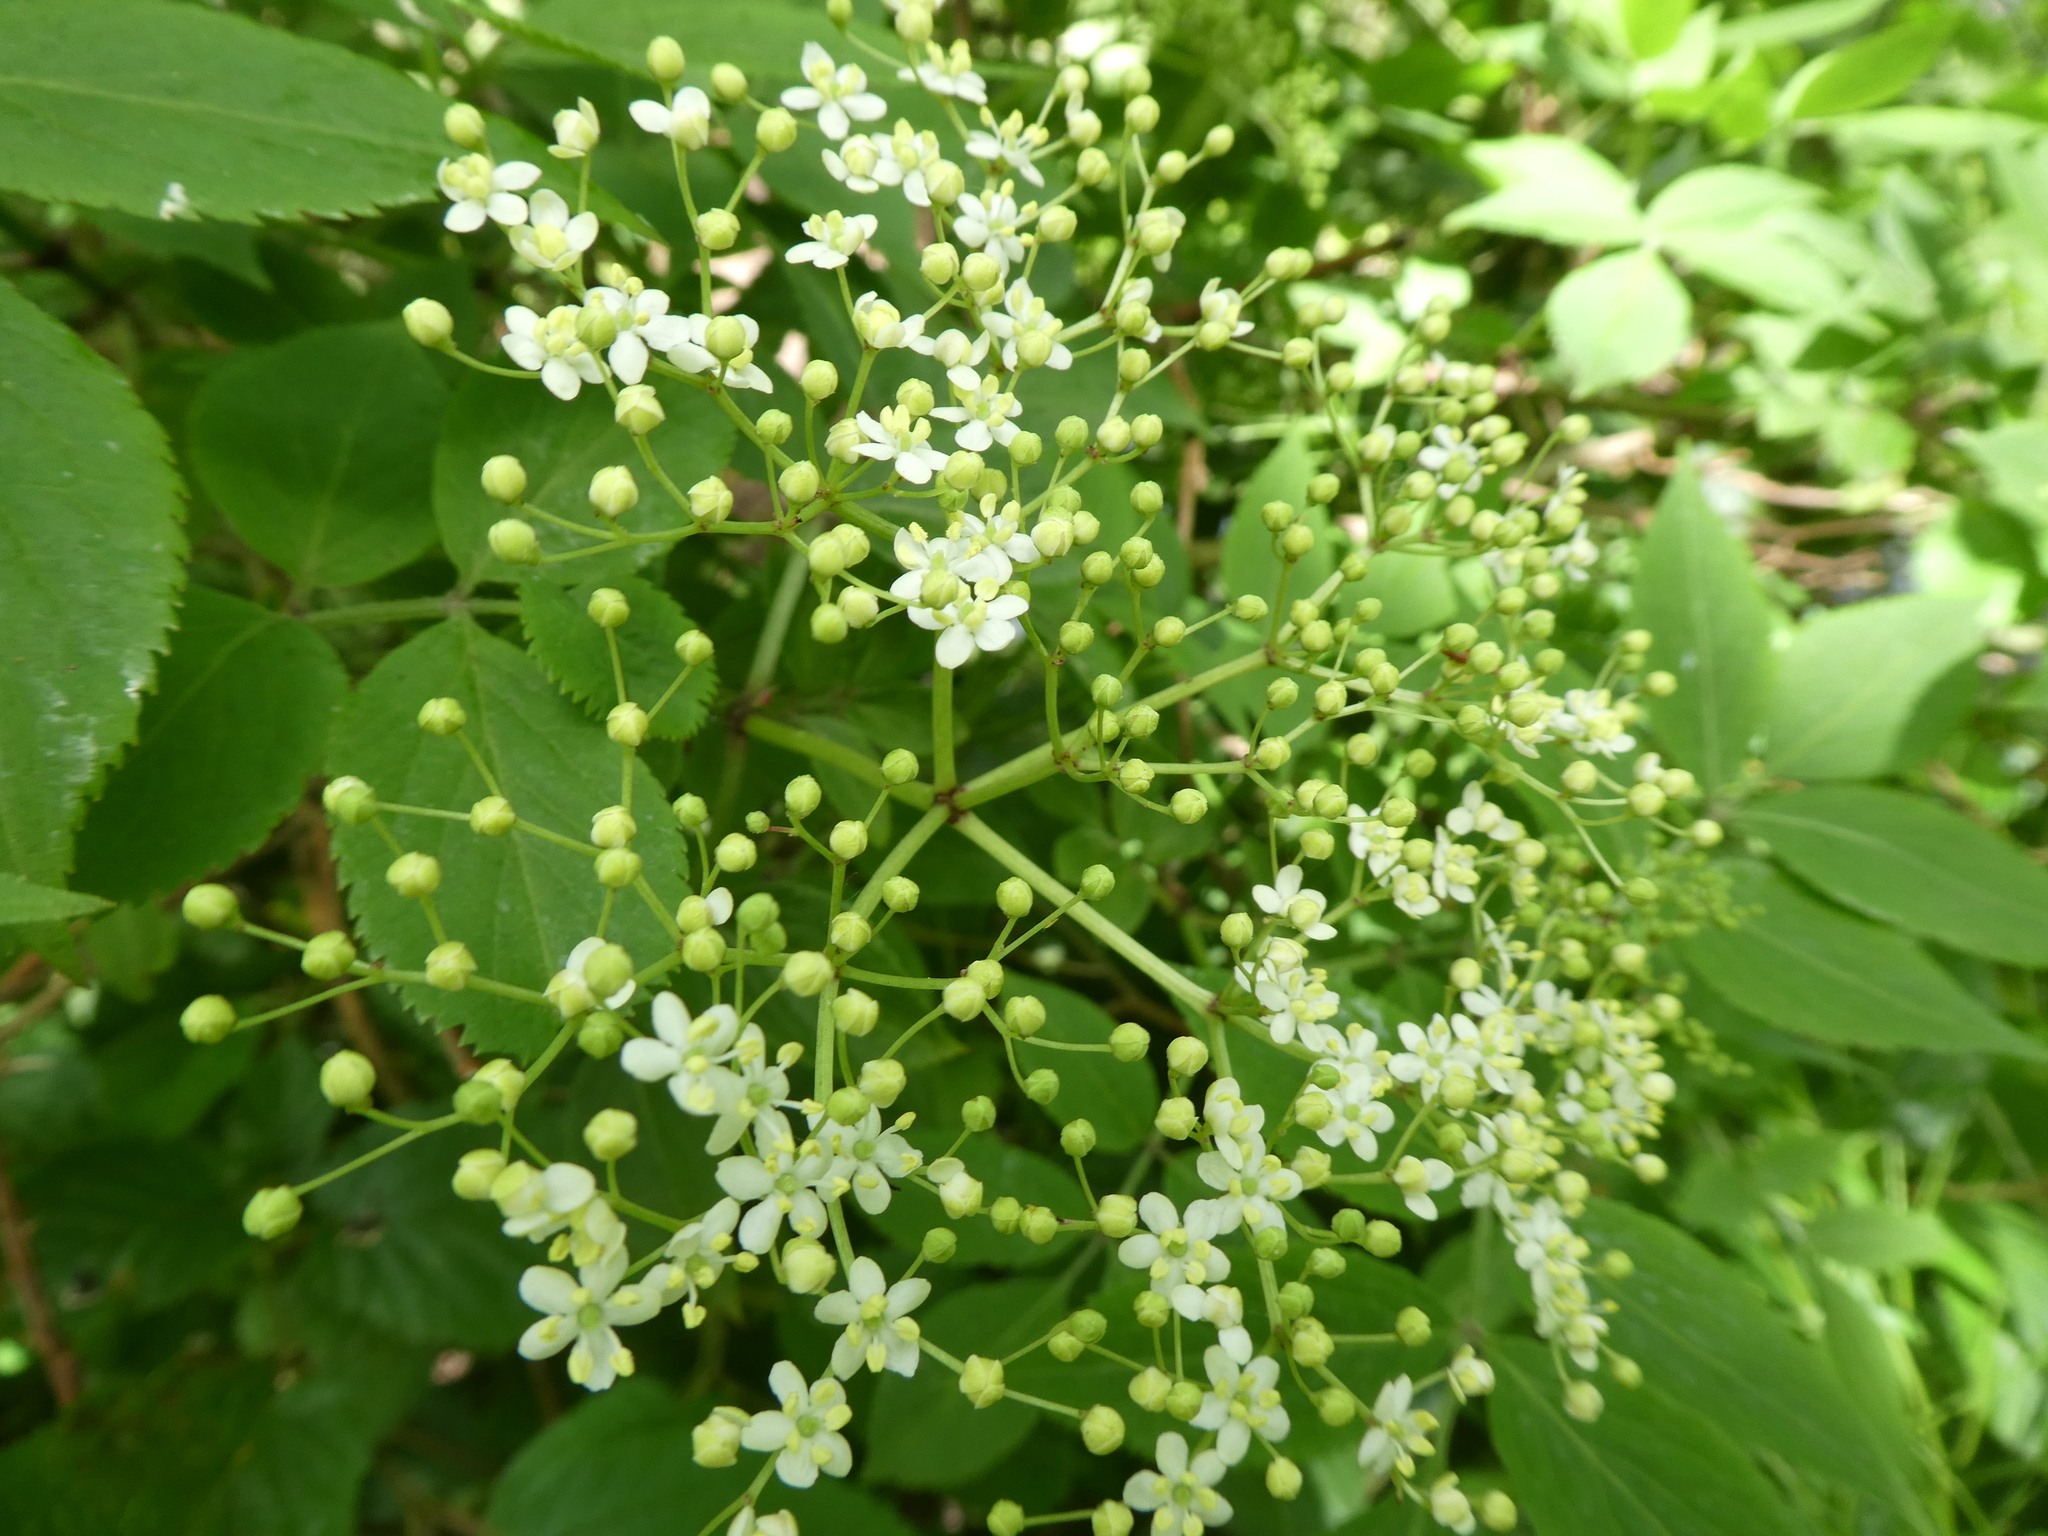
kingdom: Plantae
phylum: Tracheophyta
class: Magnoliopsida
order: Dipsacales
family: Viburnaceae
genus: Sambucus
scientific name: Sambucus nigra
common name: Elder
